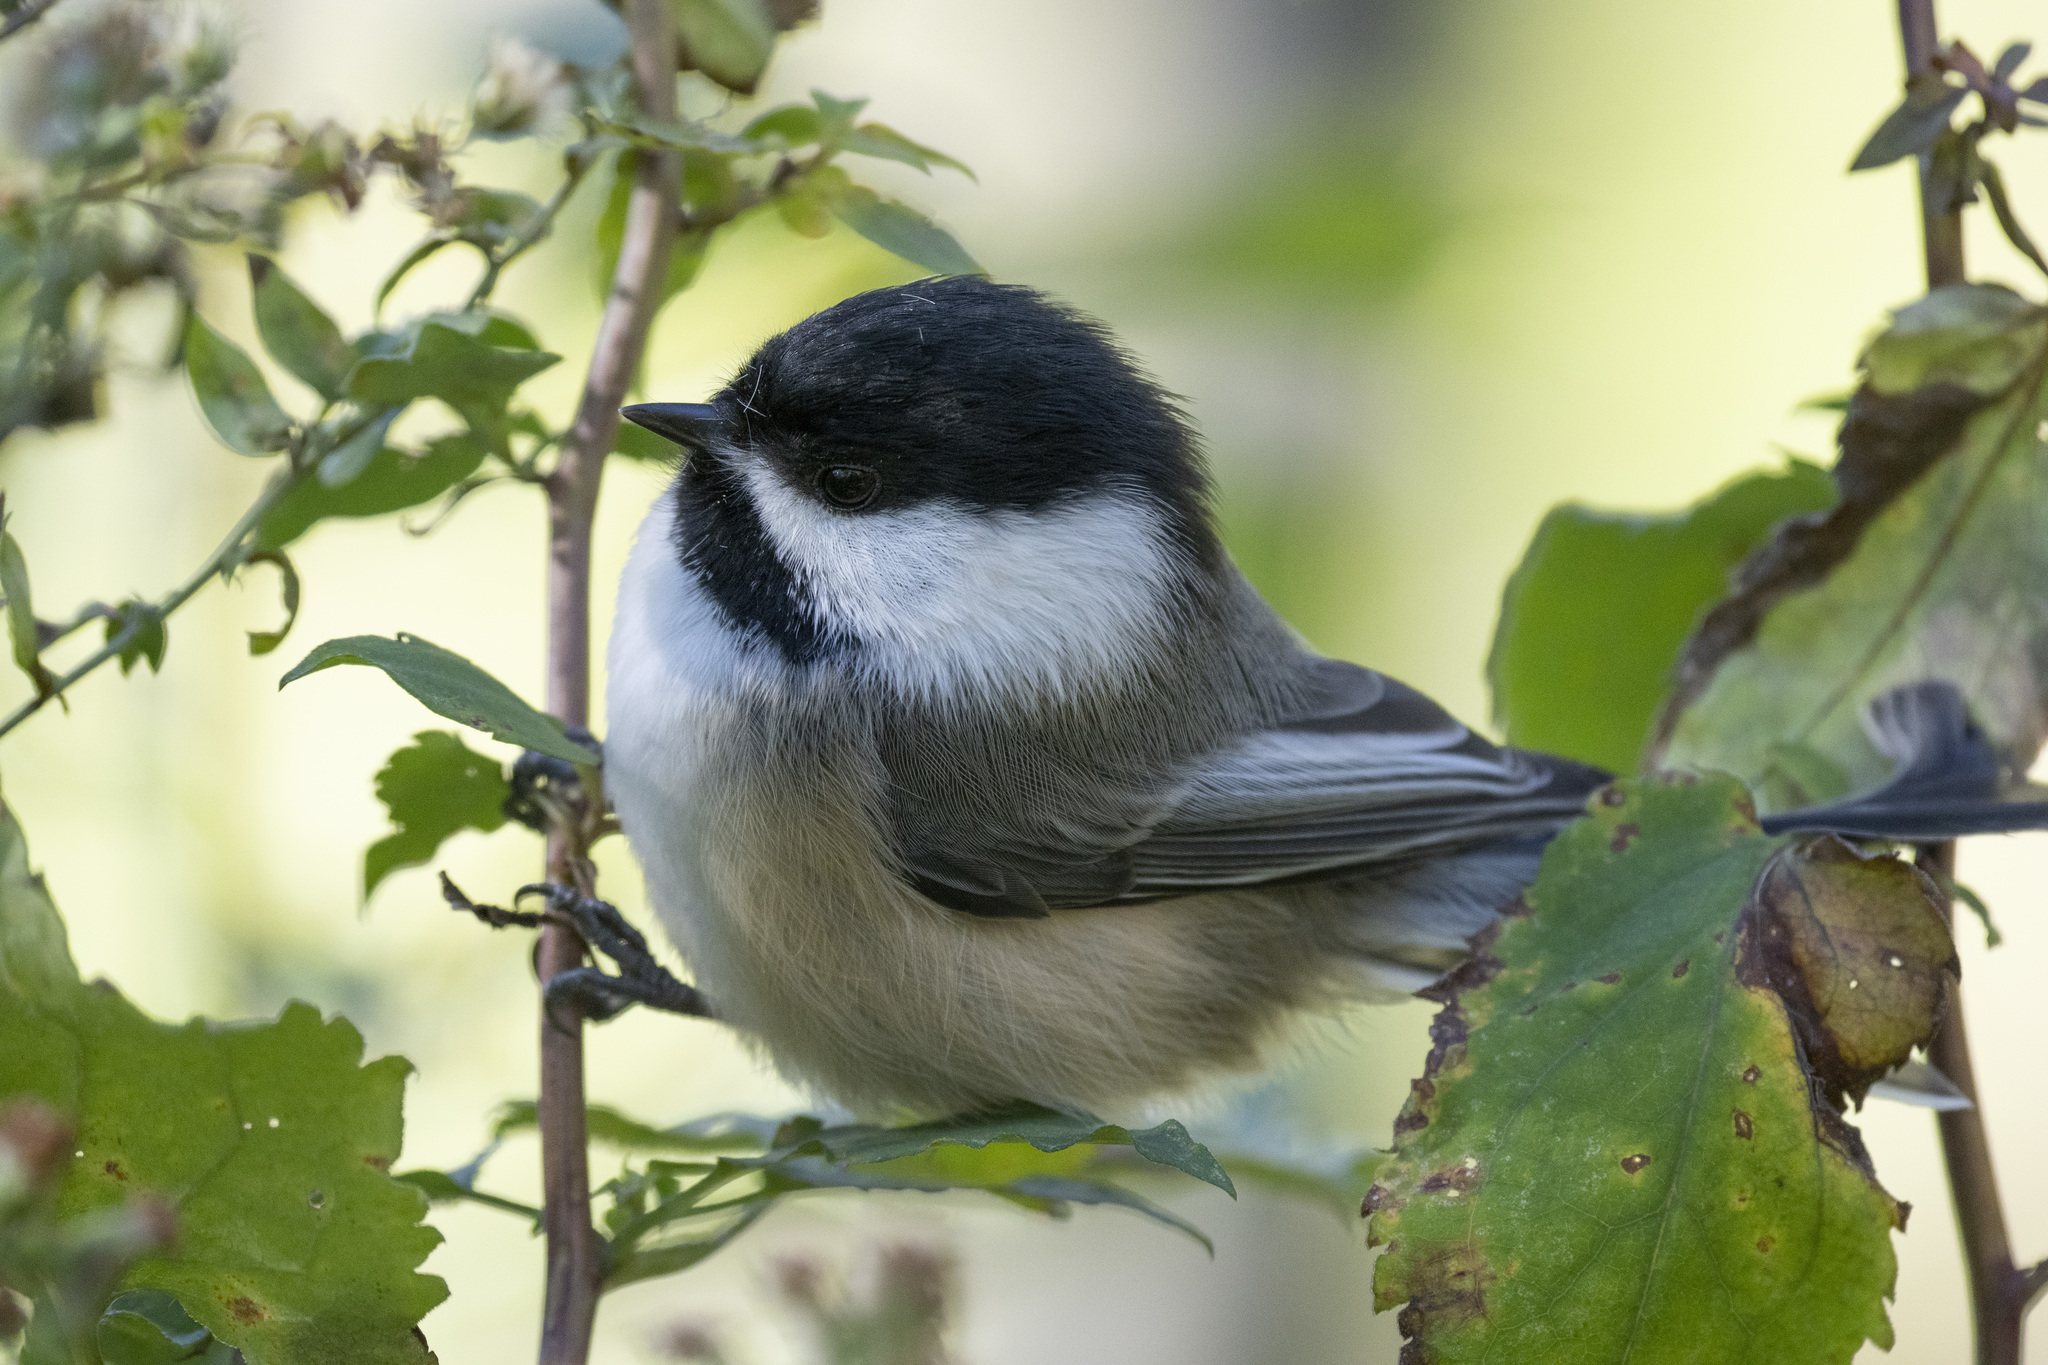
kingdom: Animalia
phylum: Chordata
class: Aves
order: Passeriformes
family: Paridae
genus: Poecile
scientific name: Poecile atricapillus
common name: Black-capped chickadee
